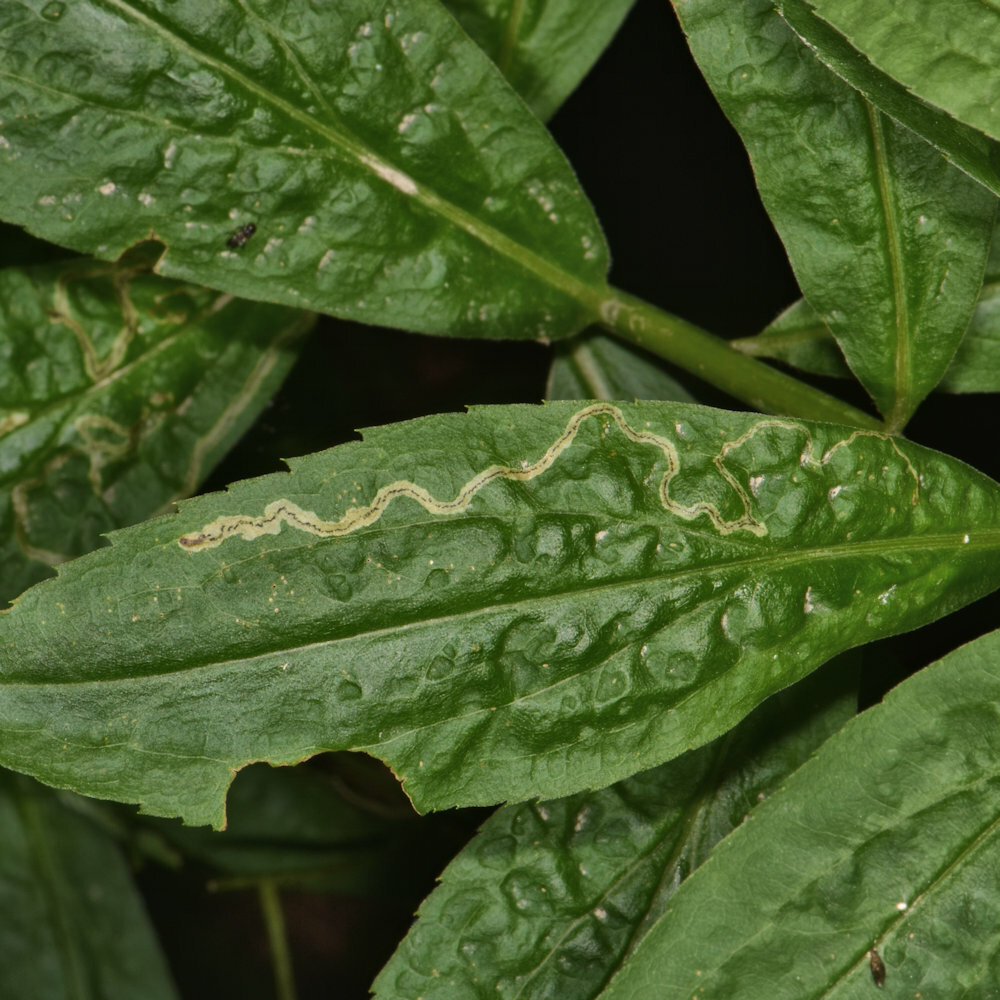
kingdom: Animalia
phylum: Arthropoda
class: Insecta
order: Diptera
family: Agromyzidae
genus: Liriomyza
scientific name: Liriomyza eupatorii
